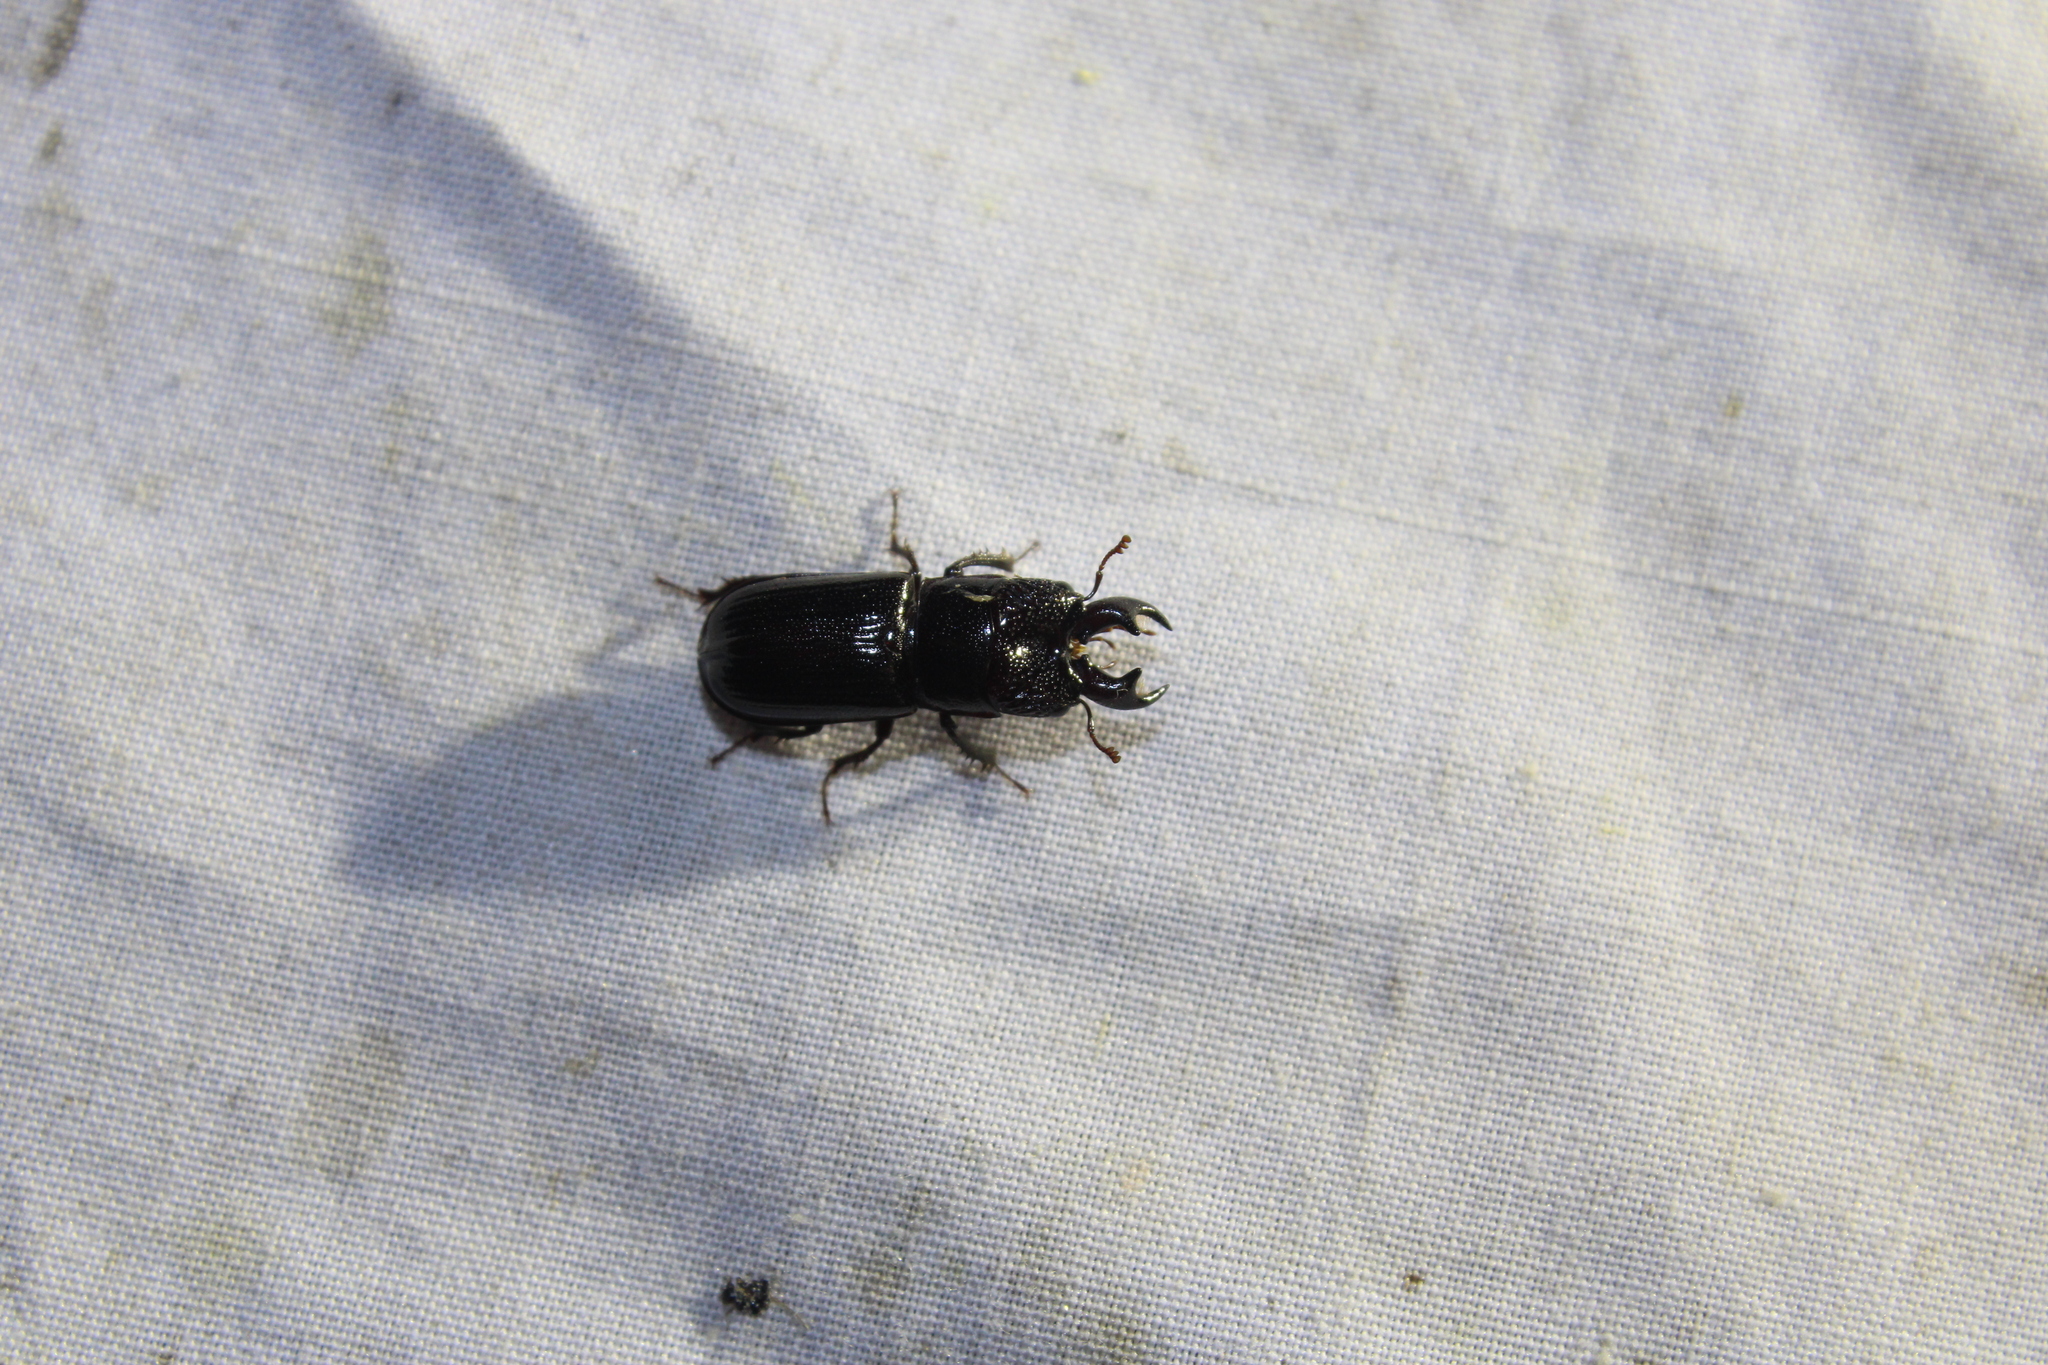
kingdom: Animalia
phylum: Arthropoda
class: Insecta
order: Coleoptera
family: Lucanidae
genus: Ceruchus
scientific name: Ceruchus piceus
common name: Red-rot decay stag beetle
